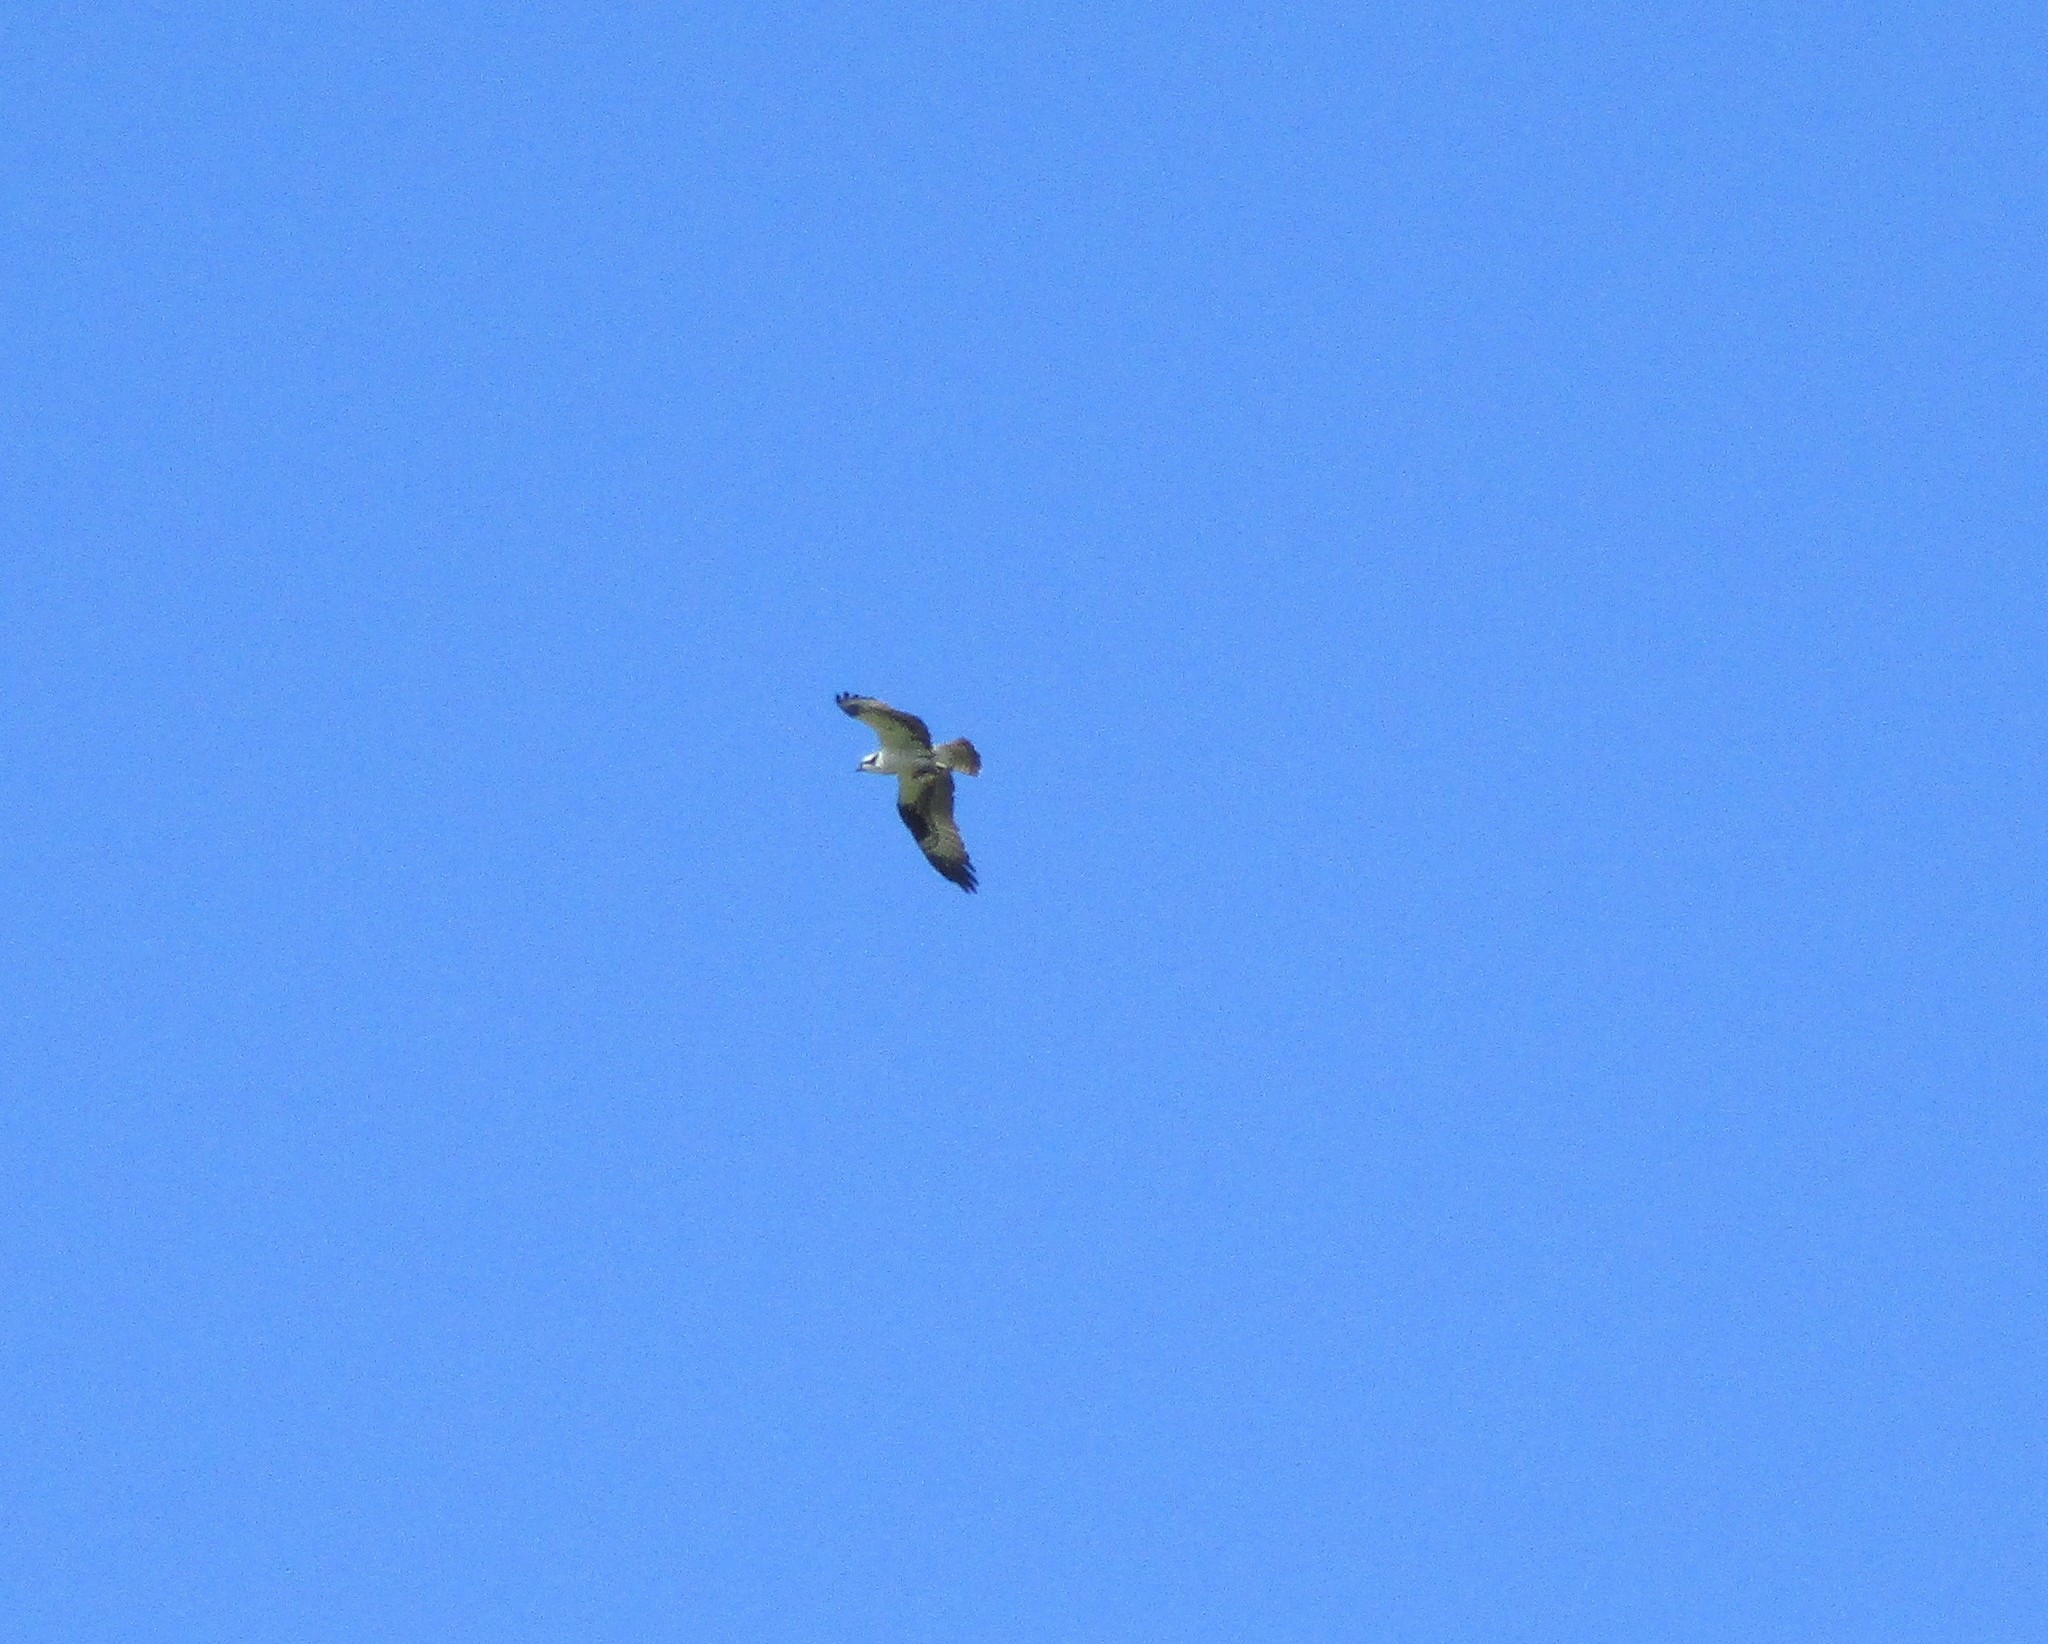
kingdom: Animalia
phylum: Chordata
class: Aves
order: Accipitriformes
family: Pandionidae
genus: Pandion
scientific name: Pandion haliaetus
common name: Osprey
